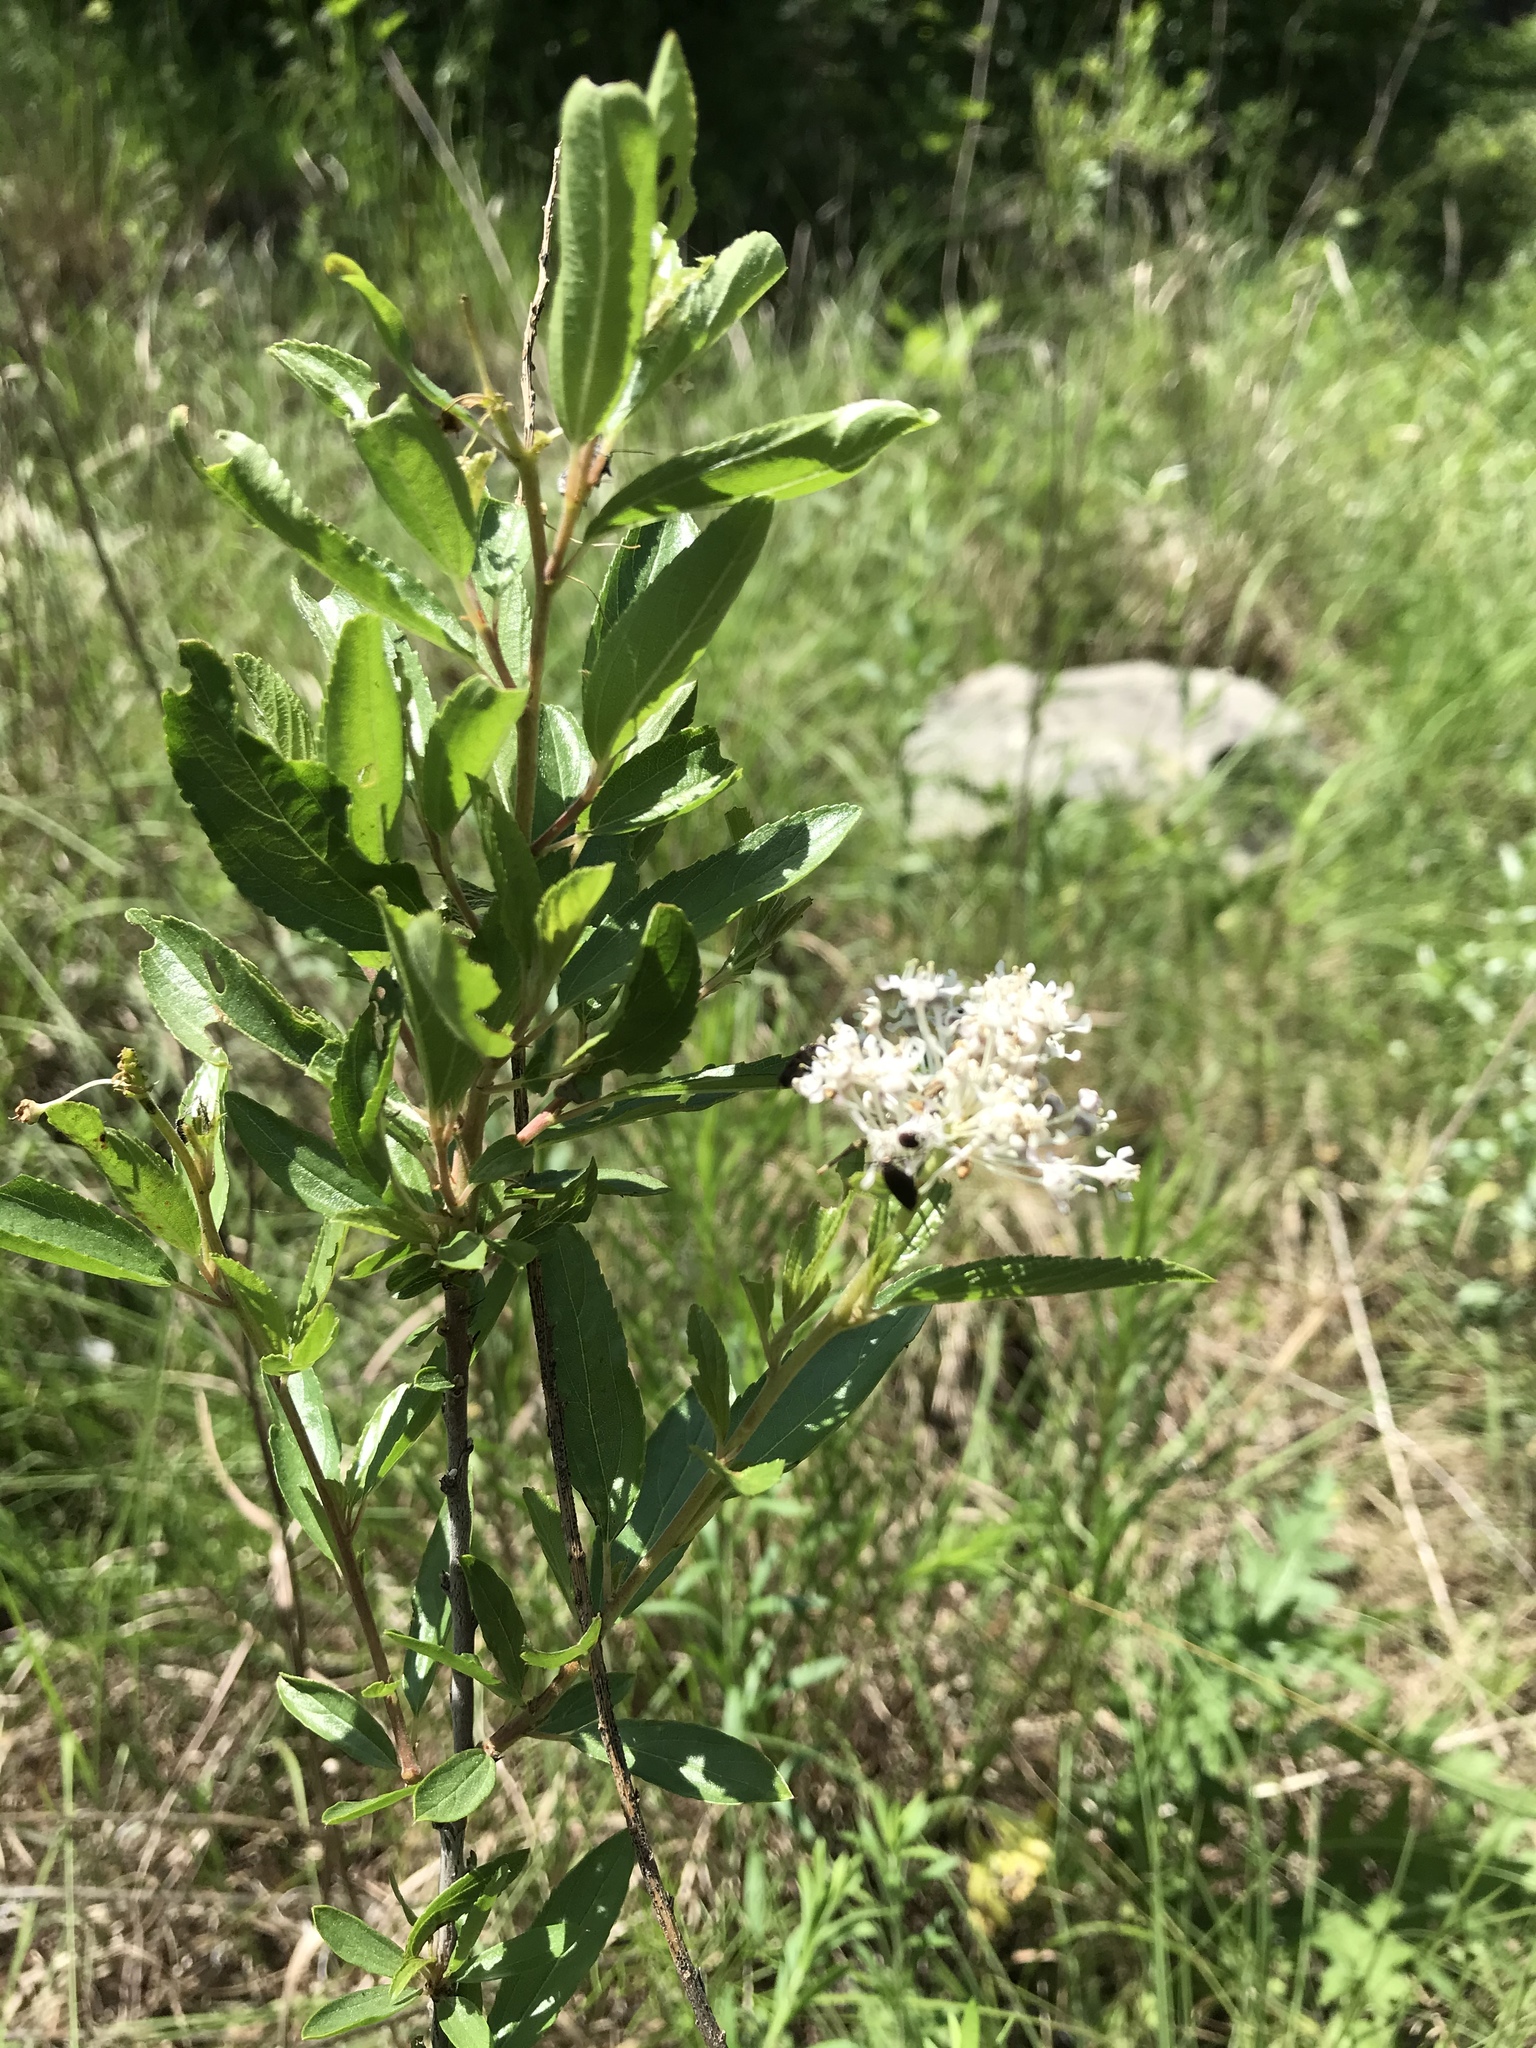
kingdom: Plantae
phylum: Tracheophyta
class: Magnoliopsida
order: Rosales
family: Rhamnaceae
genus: Ceanothus
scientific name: Ceanothus herbaceus
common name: Inland ceanothus
